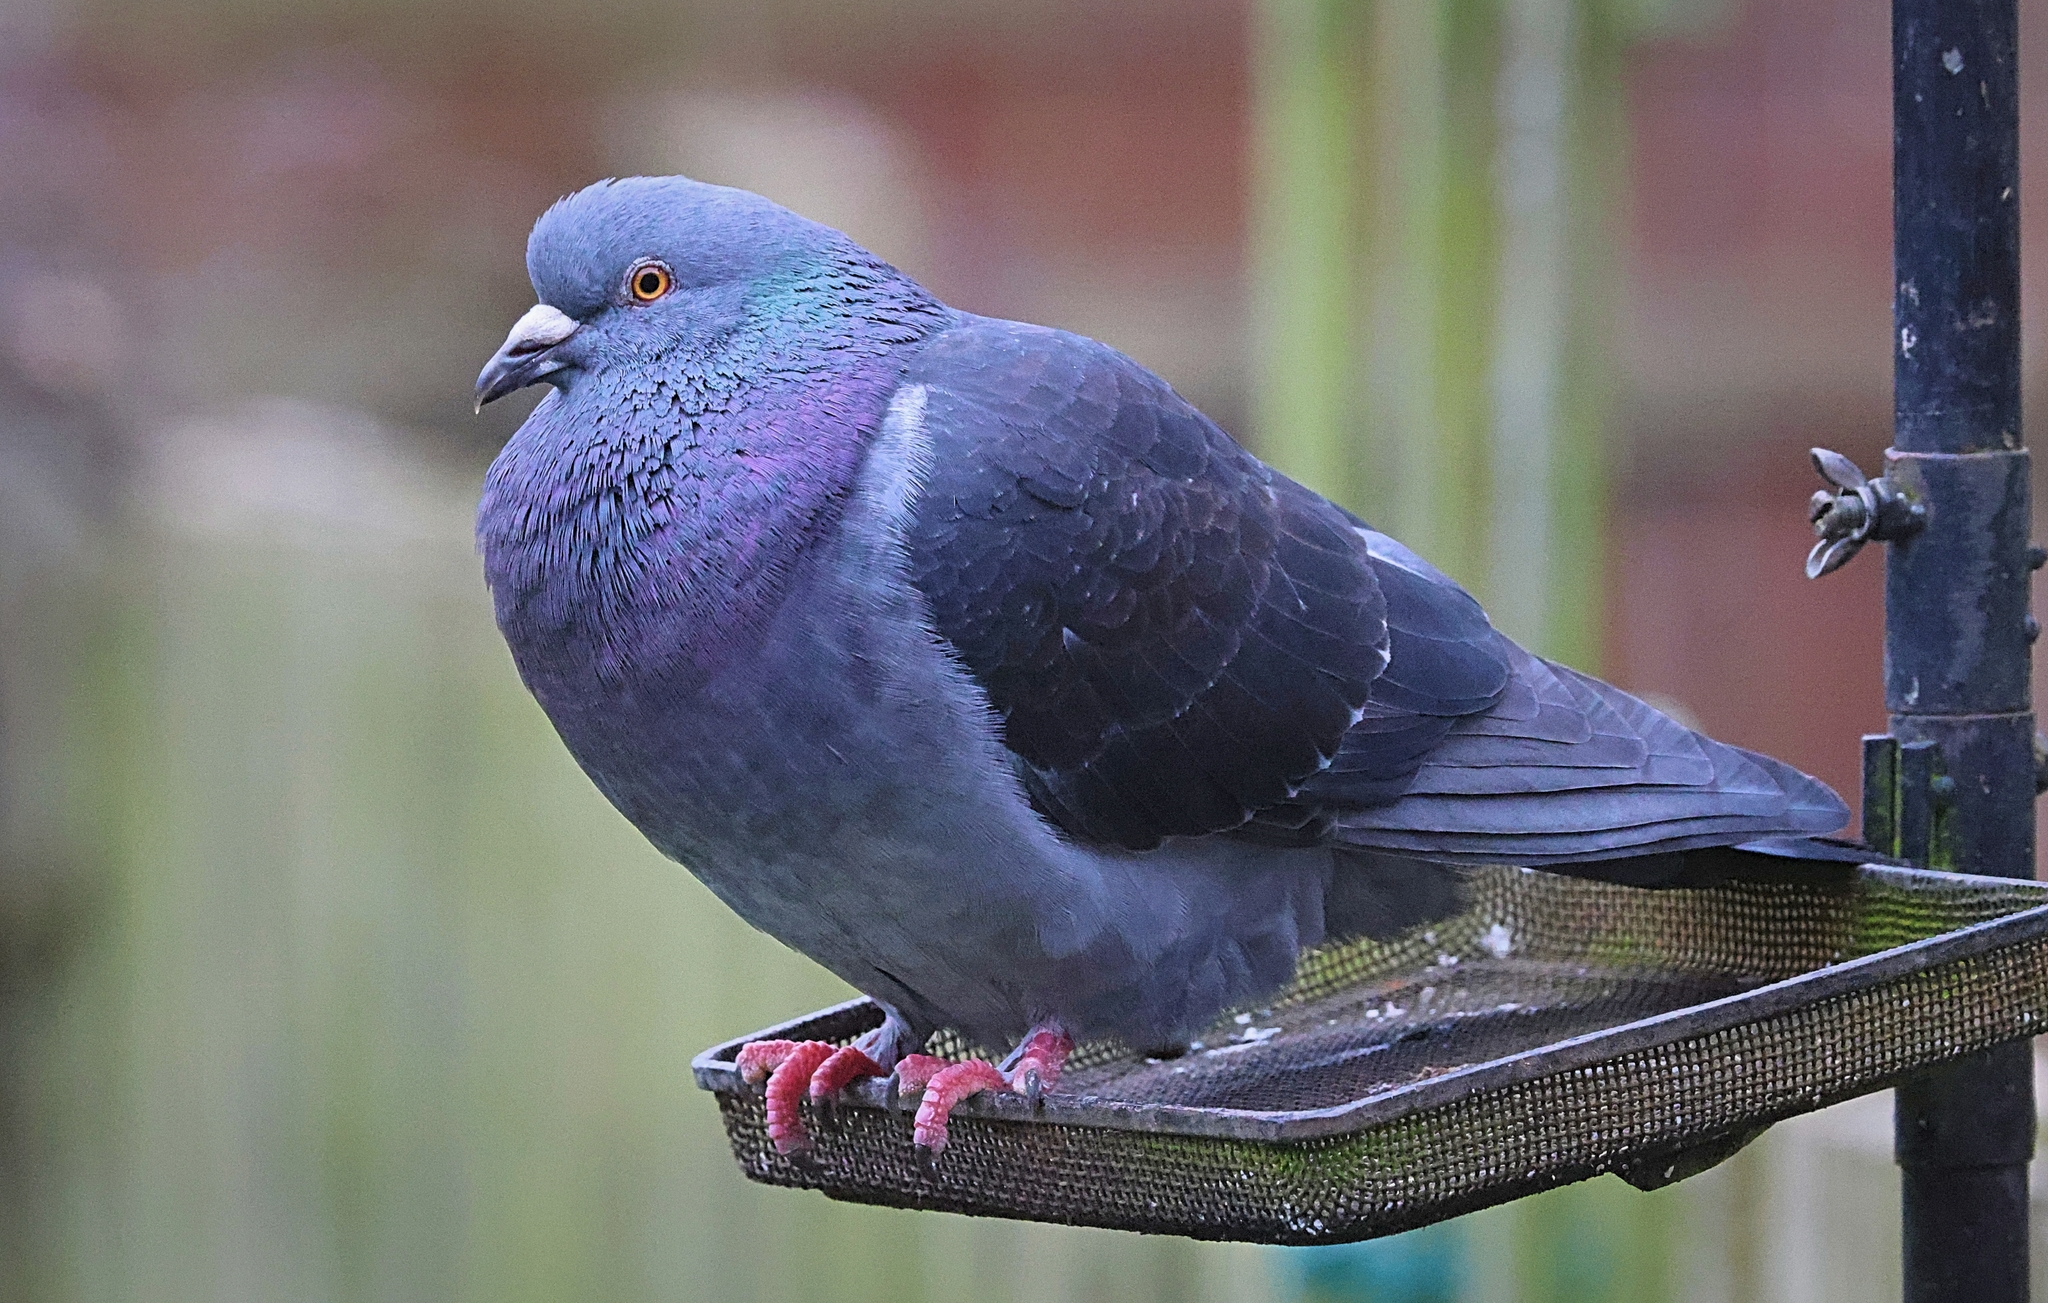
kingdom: Animalia
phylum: Chordata
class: Aves
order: Columbiformes
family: Columbidae
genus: Columba
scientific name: Columba livia
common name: Rock pigeon
